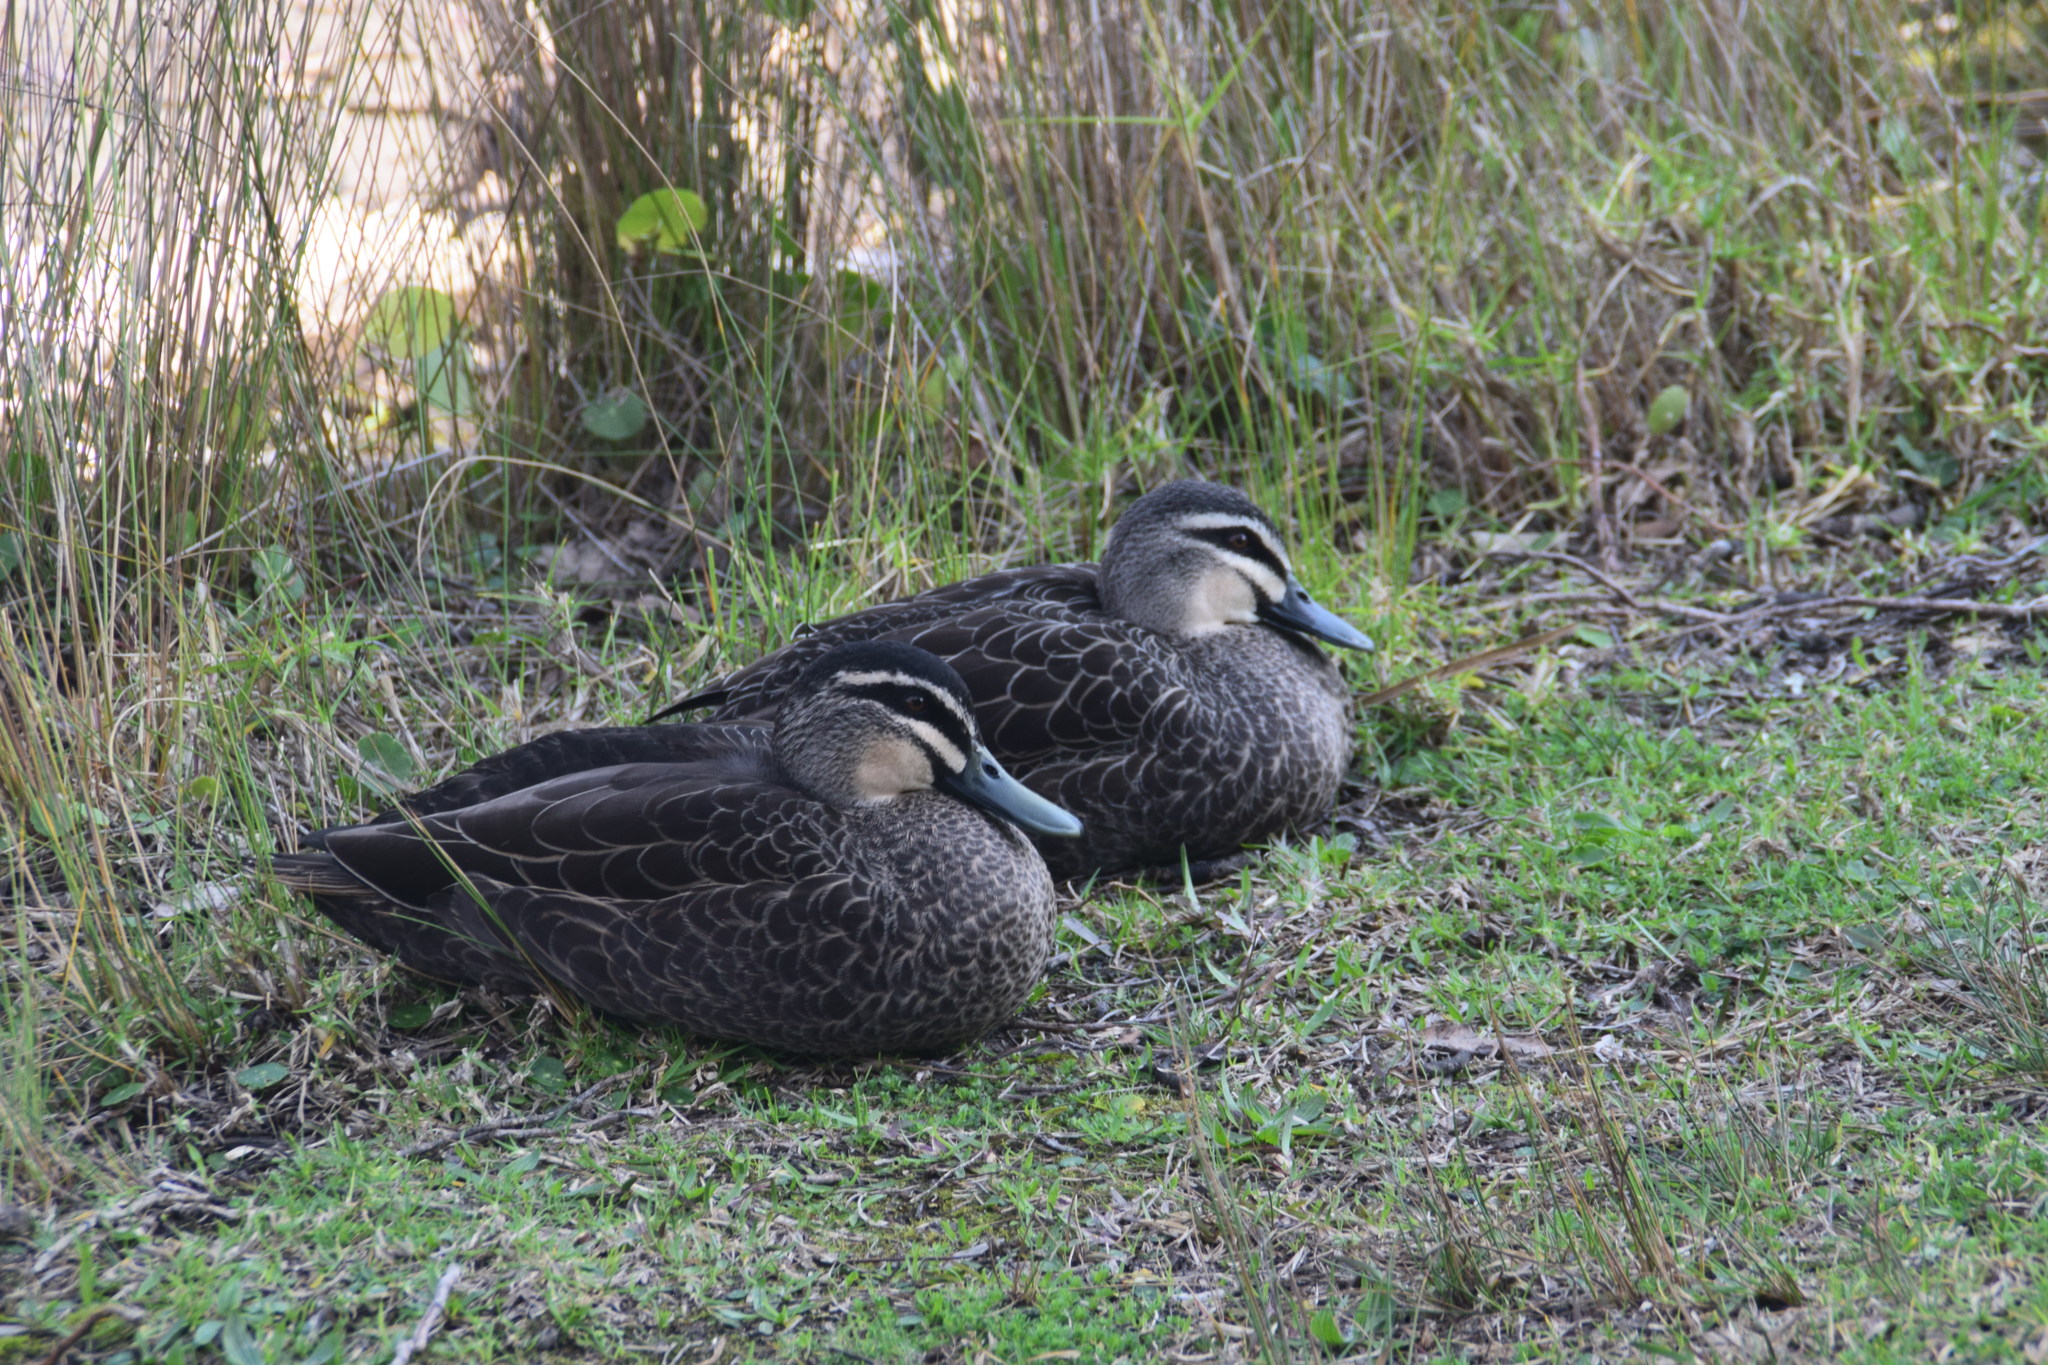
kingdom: Animalia
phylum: Chordata
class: Aves
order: Anseriformes
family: Anatidae
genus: Anas
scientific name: Anas superciliosa
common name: Pacific black duck
